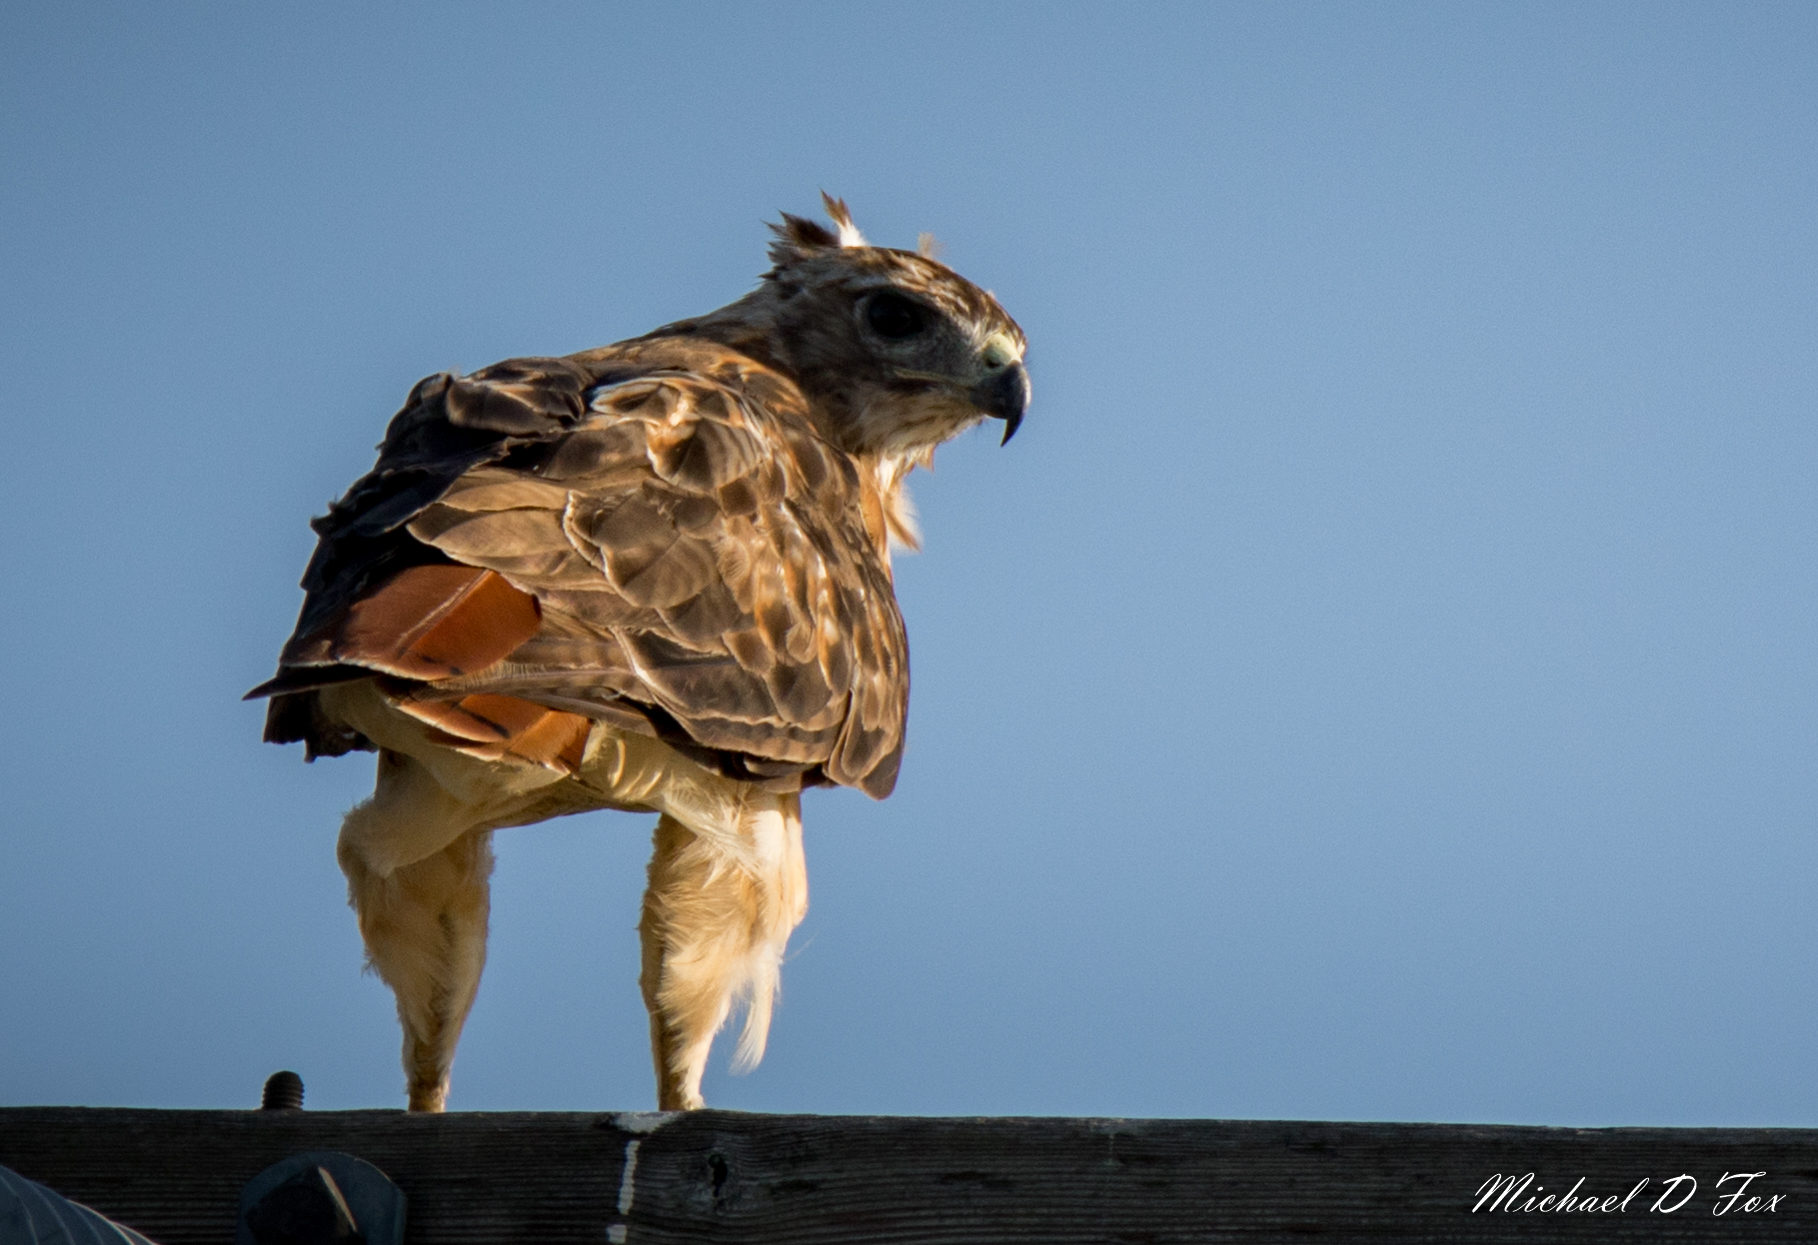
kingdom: Animalia
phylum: Chordata
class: Aves
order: Accipitriformes
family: Accipitridae
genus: Buteo
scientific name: Buteo jamaicensis
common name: Red-tailed hawk
